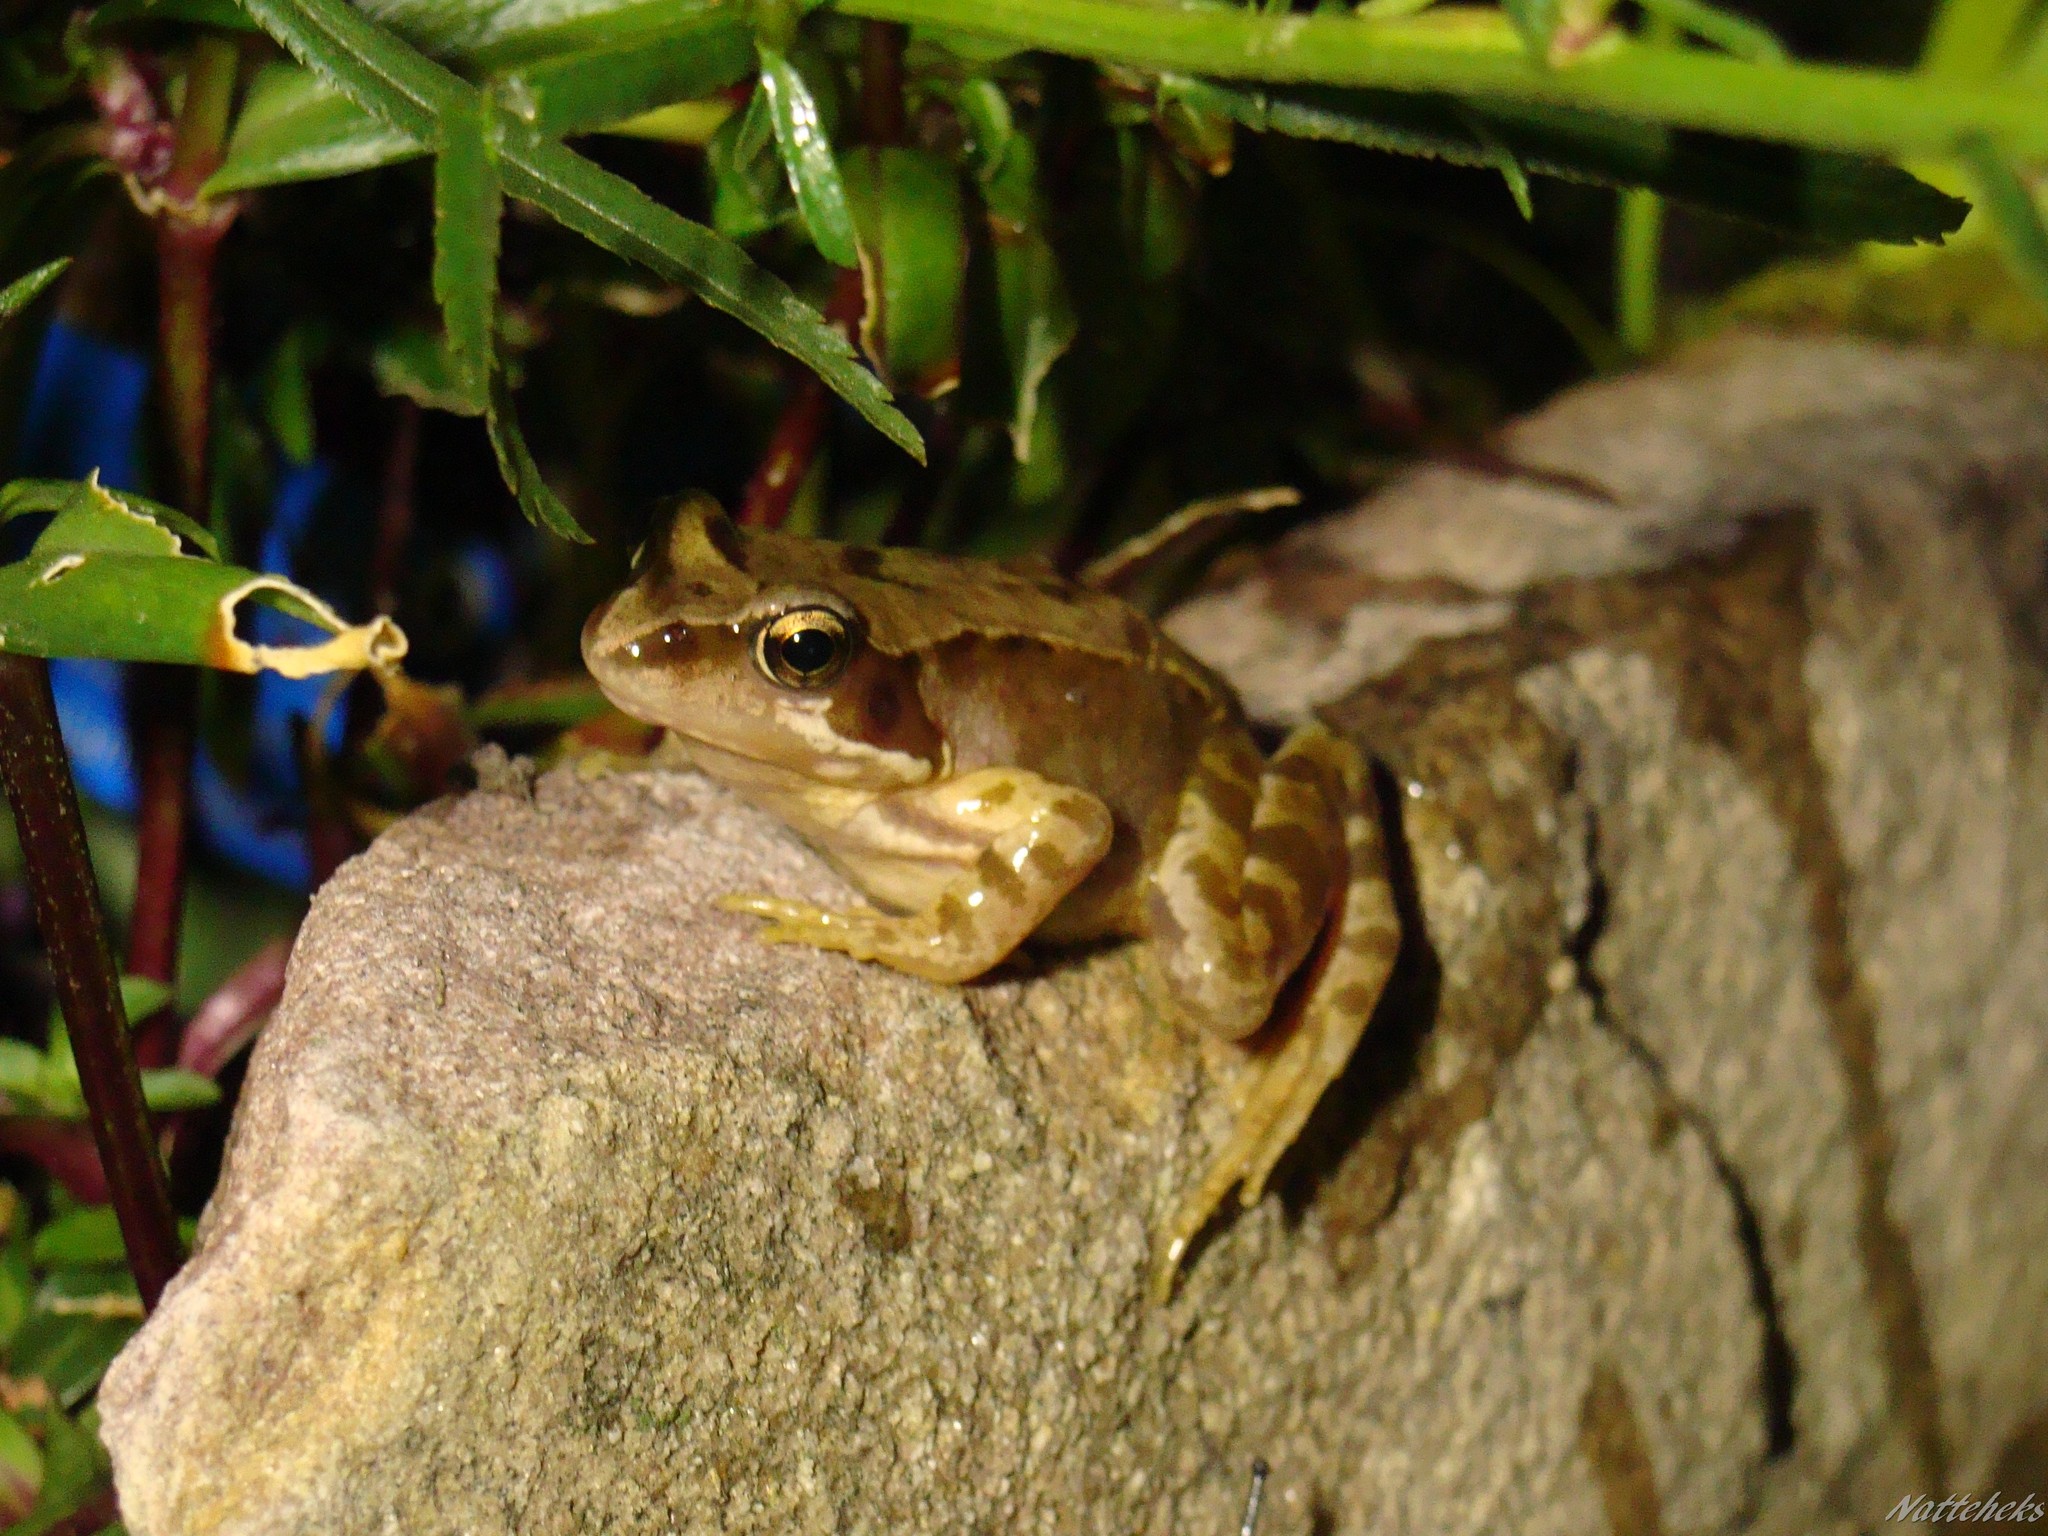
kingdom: Animalia
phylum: Chordata
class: Amphibia
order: Anura
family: Ranidae
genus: Rana
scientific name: Rana temporaria
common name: Common frog
